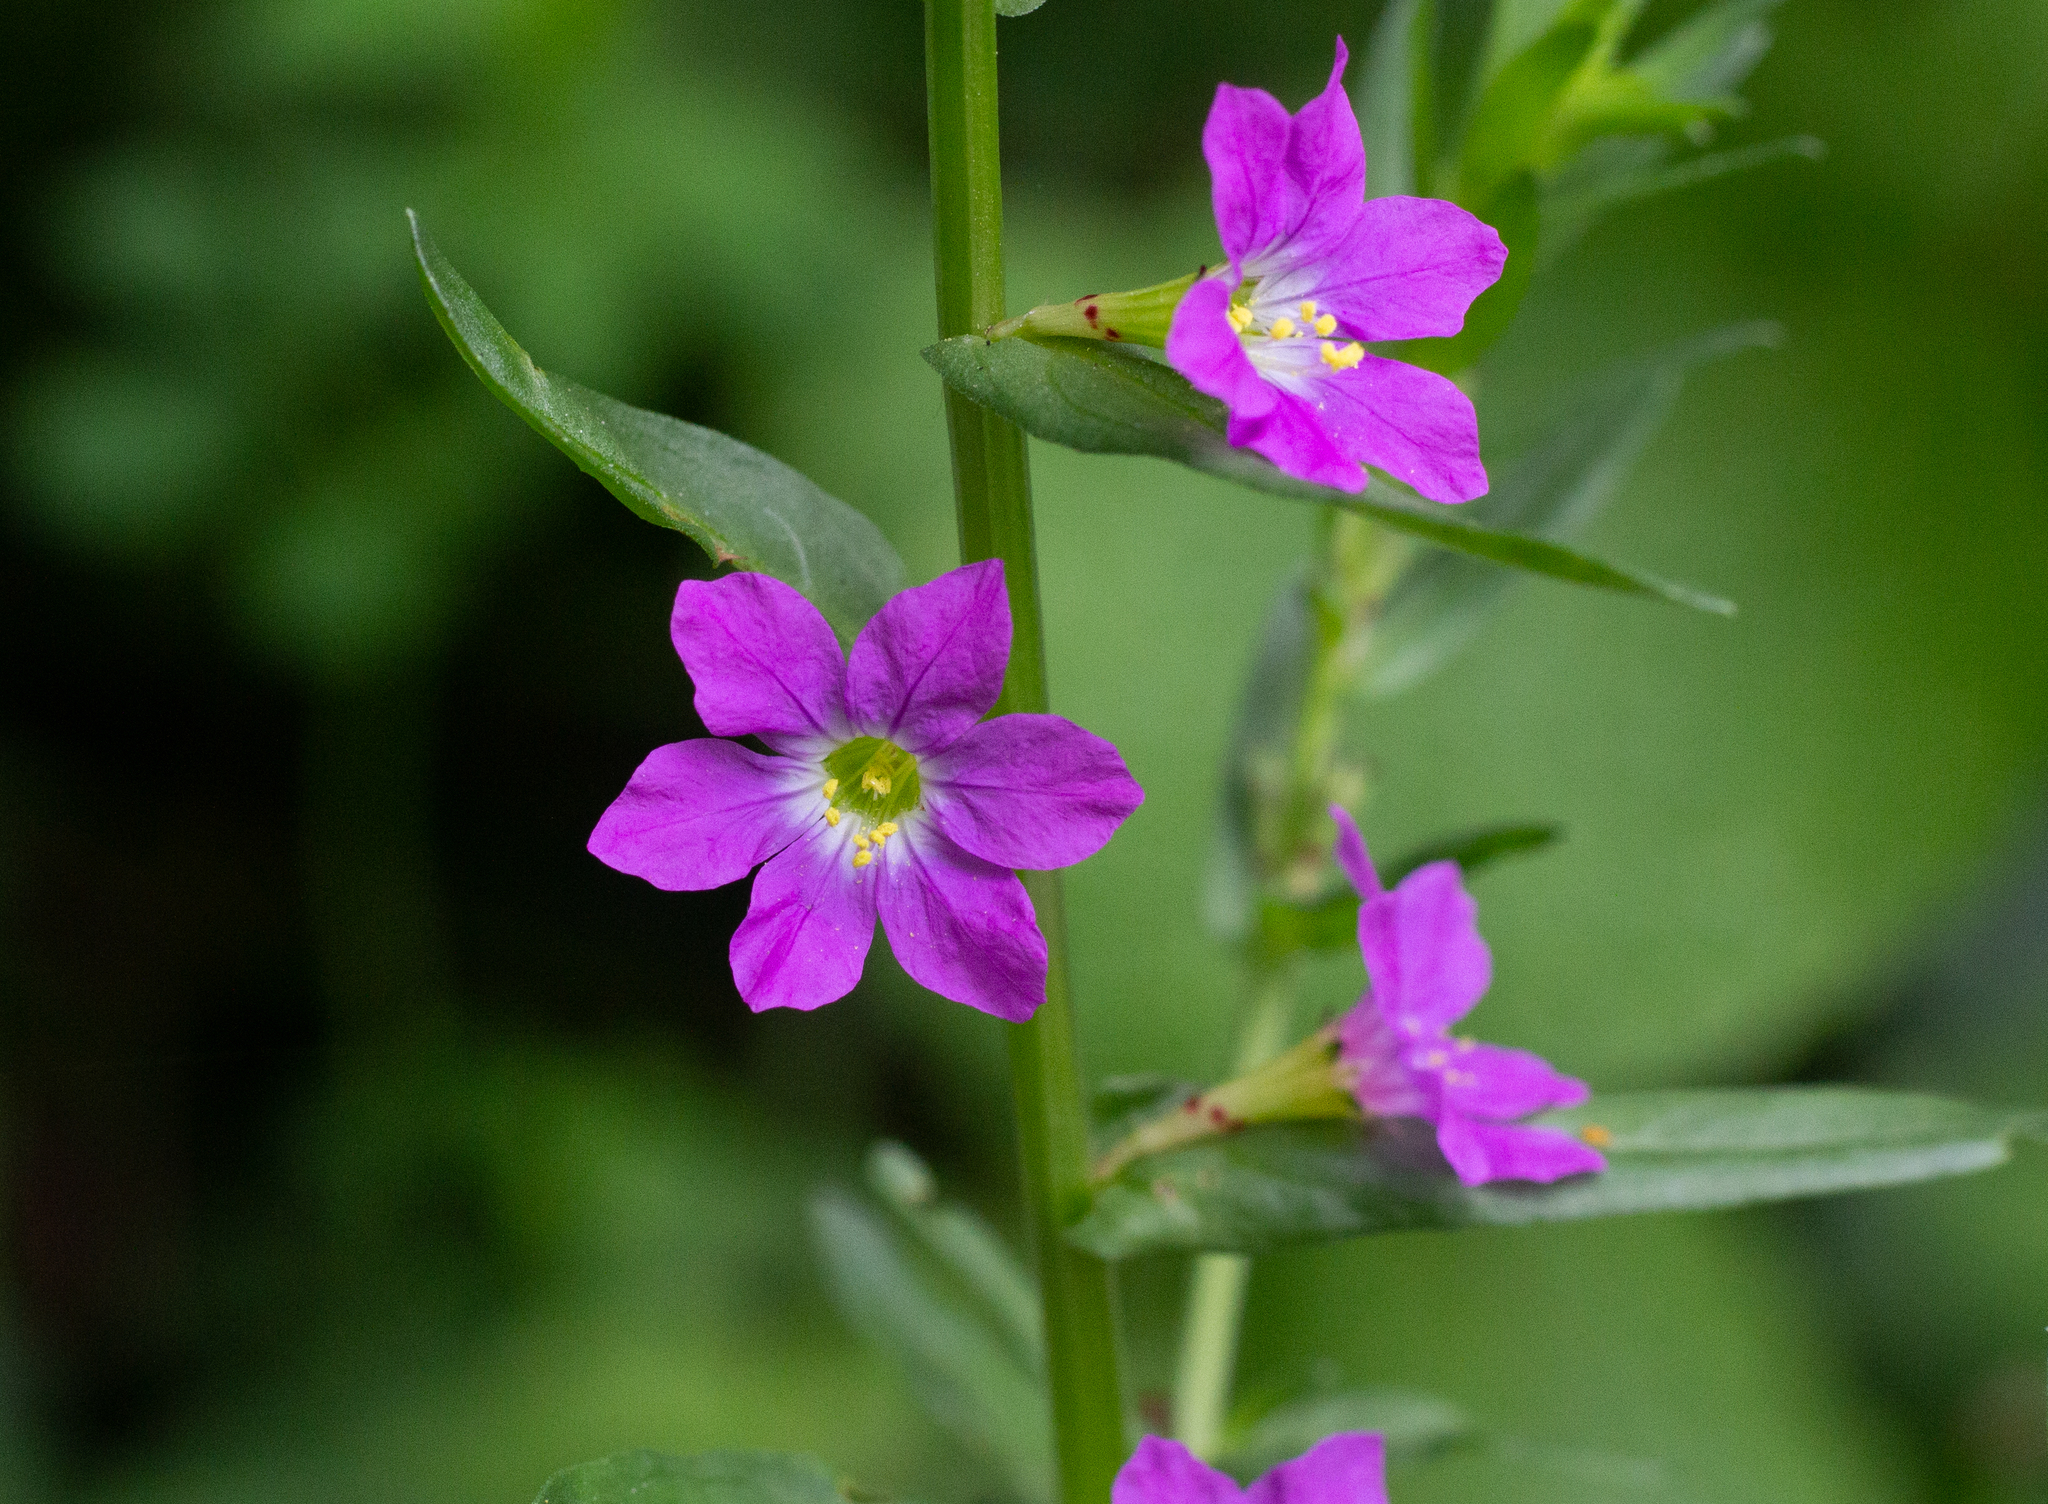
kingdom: Plantae
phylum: Tracheophyta
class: Magnoliopsida
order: Myrtales
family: Lythraceae
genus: Lythrum
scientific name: Lythrum junceum
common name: False grass-poly
